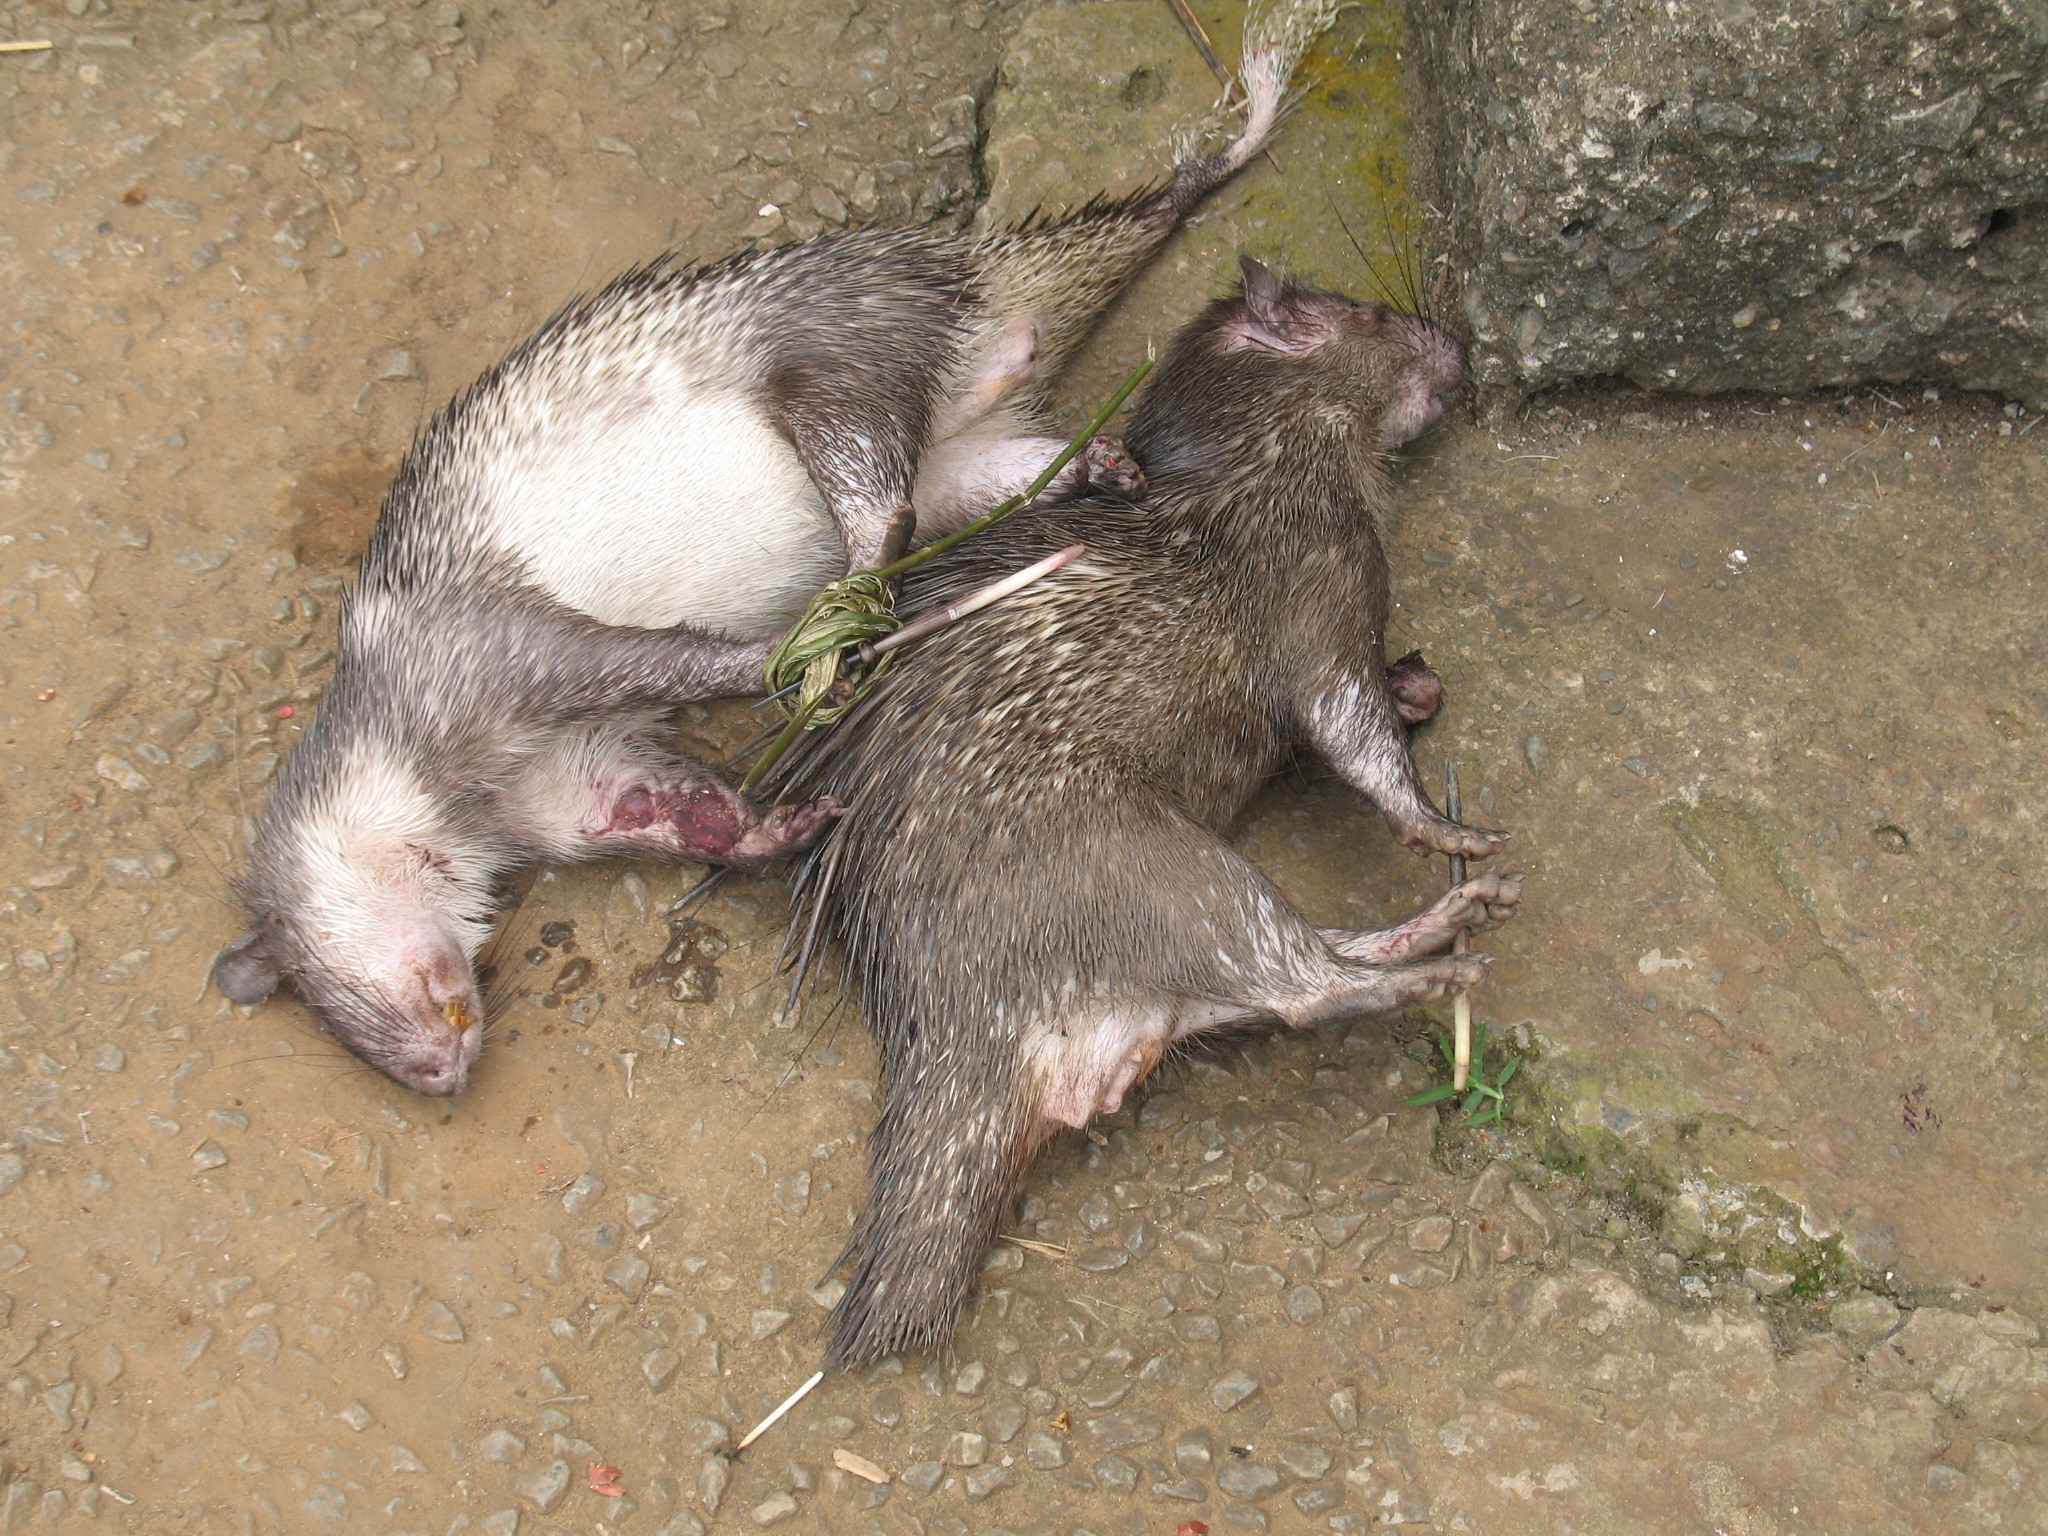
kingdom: Animalia
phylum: Chordata
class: Mammalia
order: Rodentia
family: Hystricidae
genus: Atherurus
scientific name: Atherurus africanus
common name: African brush-tailed porcupine
